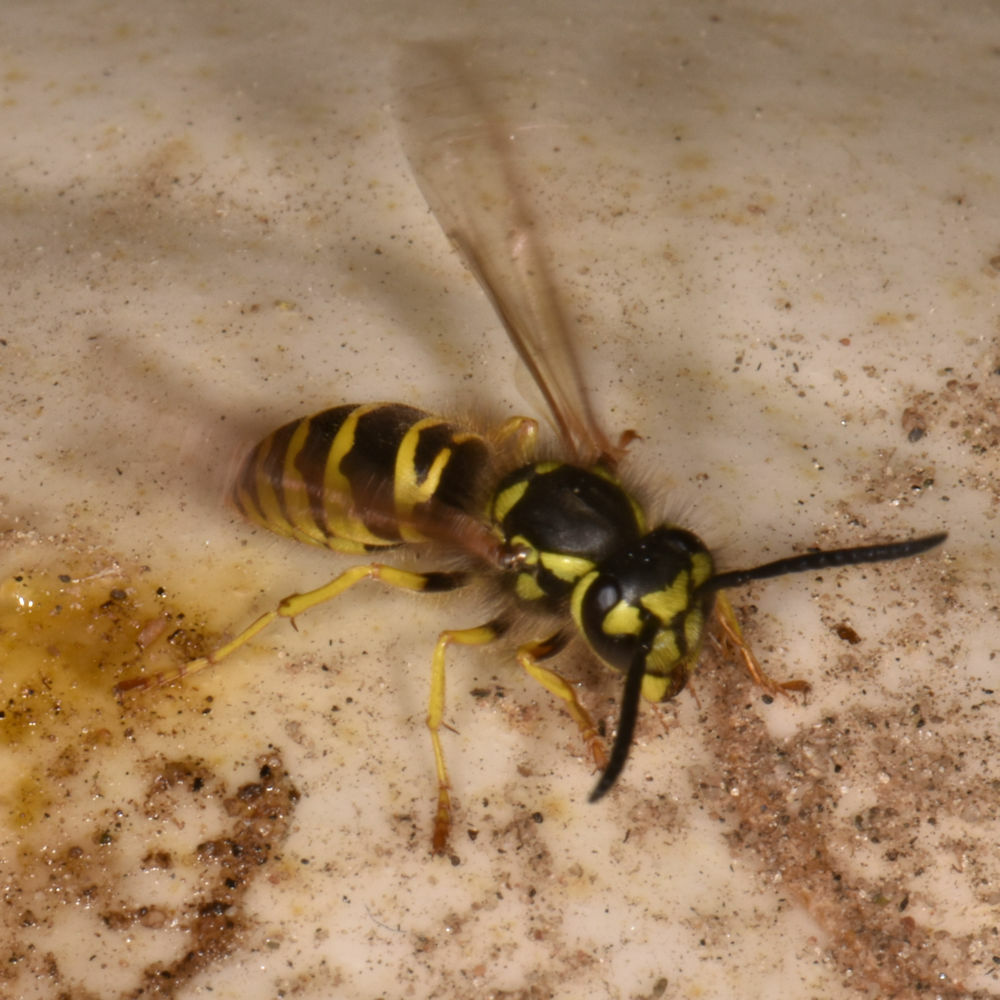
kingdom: Animalia
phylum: Arthropoda
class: Insecta
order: Hymenoptera
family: Vespidae
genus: Vespula
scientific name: Vespula maculifrons
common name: Eastern yellowjacket
